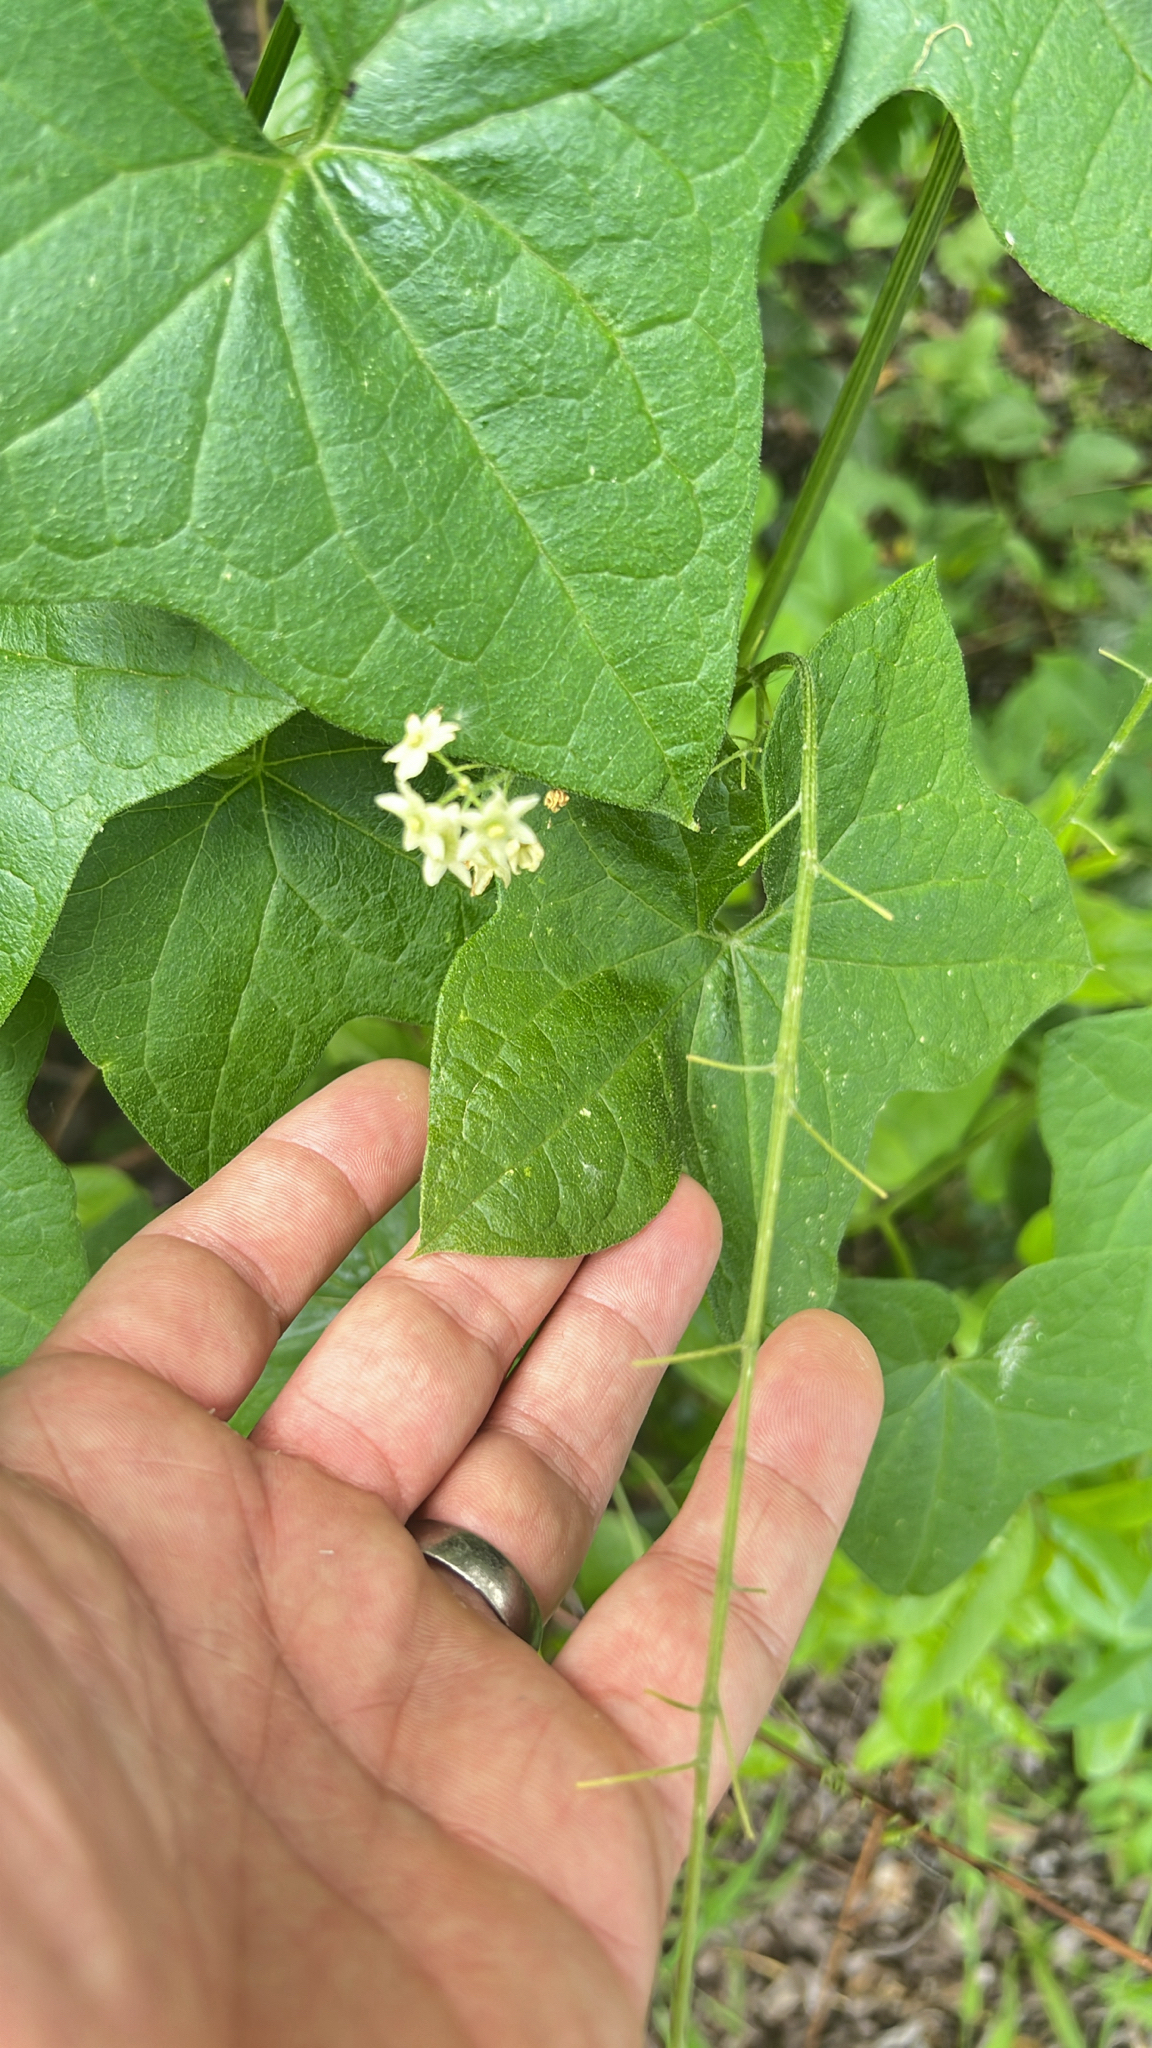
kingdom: Plantae
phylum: Tracheophyta
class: Magnoliopsida
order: Cucurbitales
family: Cucurbitaceae
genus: Marah
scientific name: Marah fabacea
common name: California manroot
